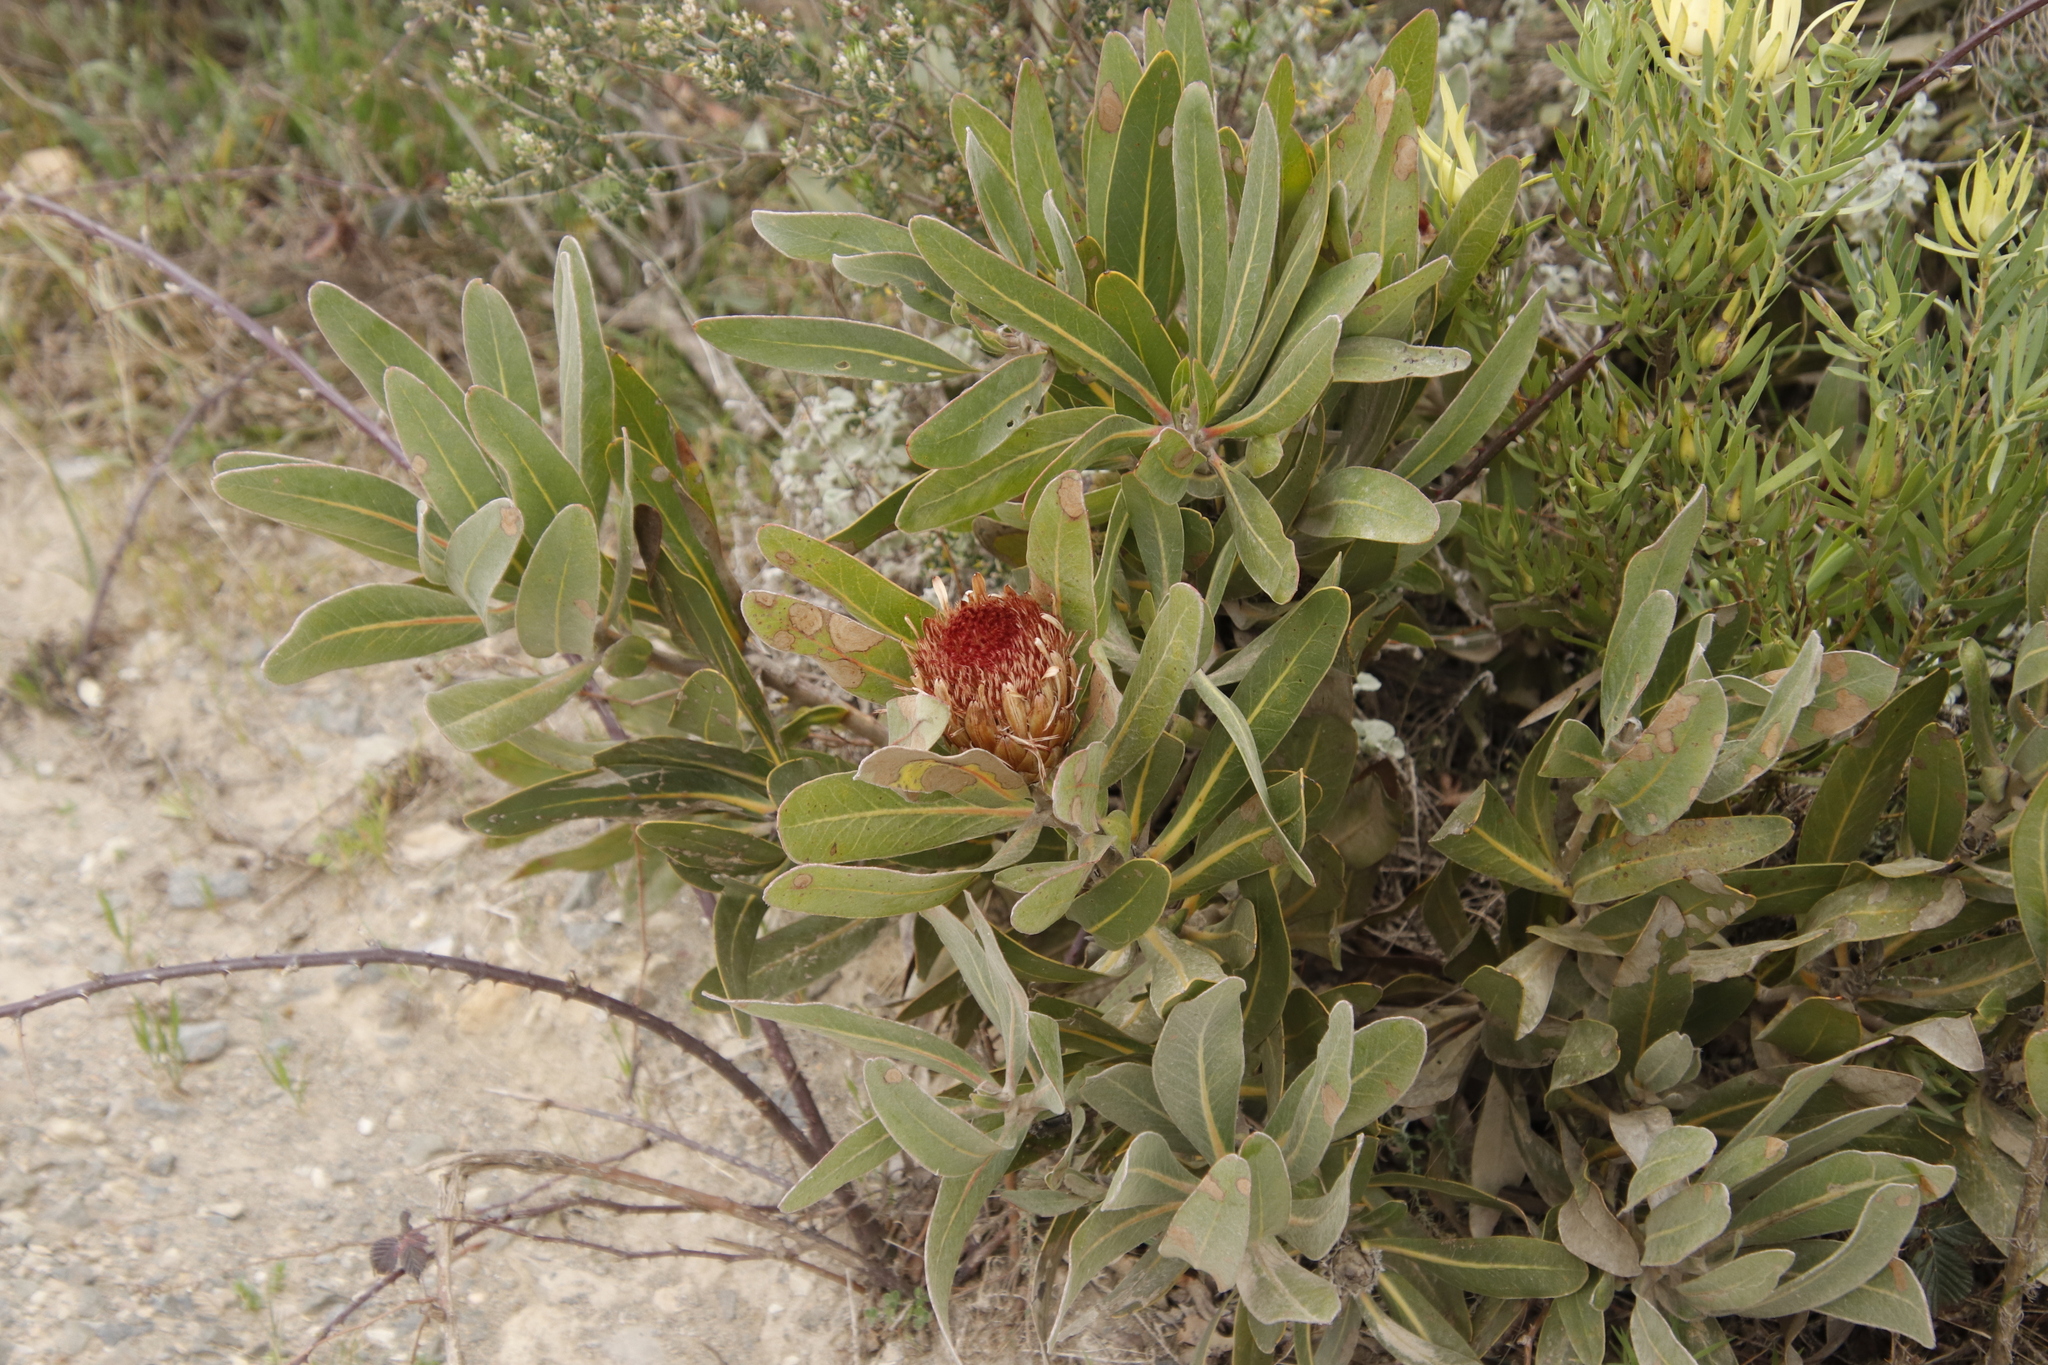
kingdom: Plantae
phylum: Tracheophyta
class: Magnoliopsida
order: Proteales
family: Proteaceae
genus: Protea
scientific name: Protea lorifolia
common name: Strap-leaved protea
